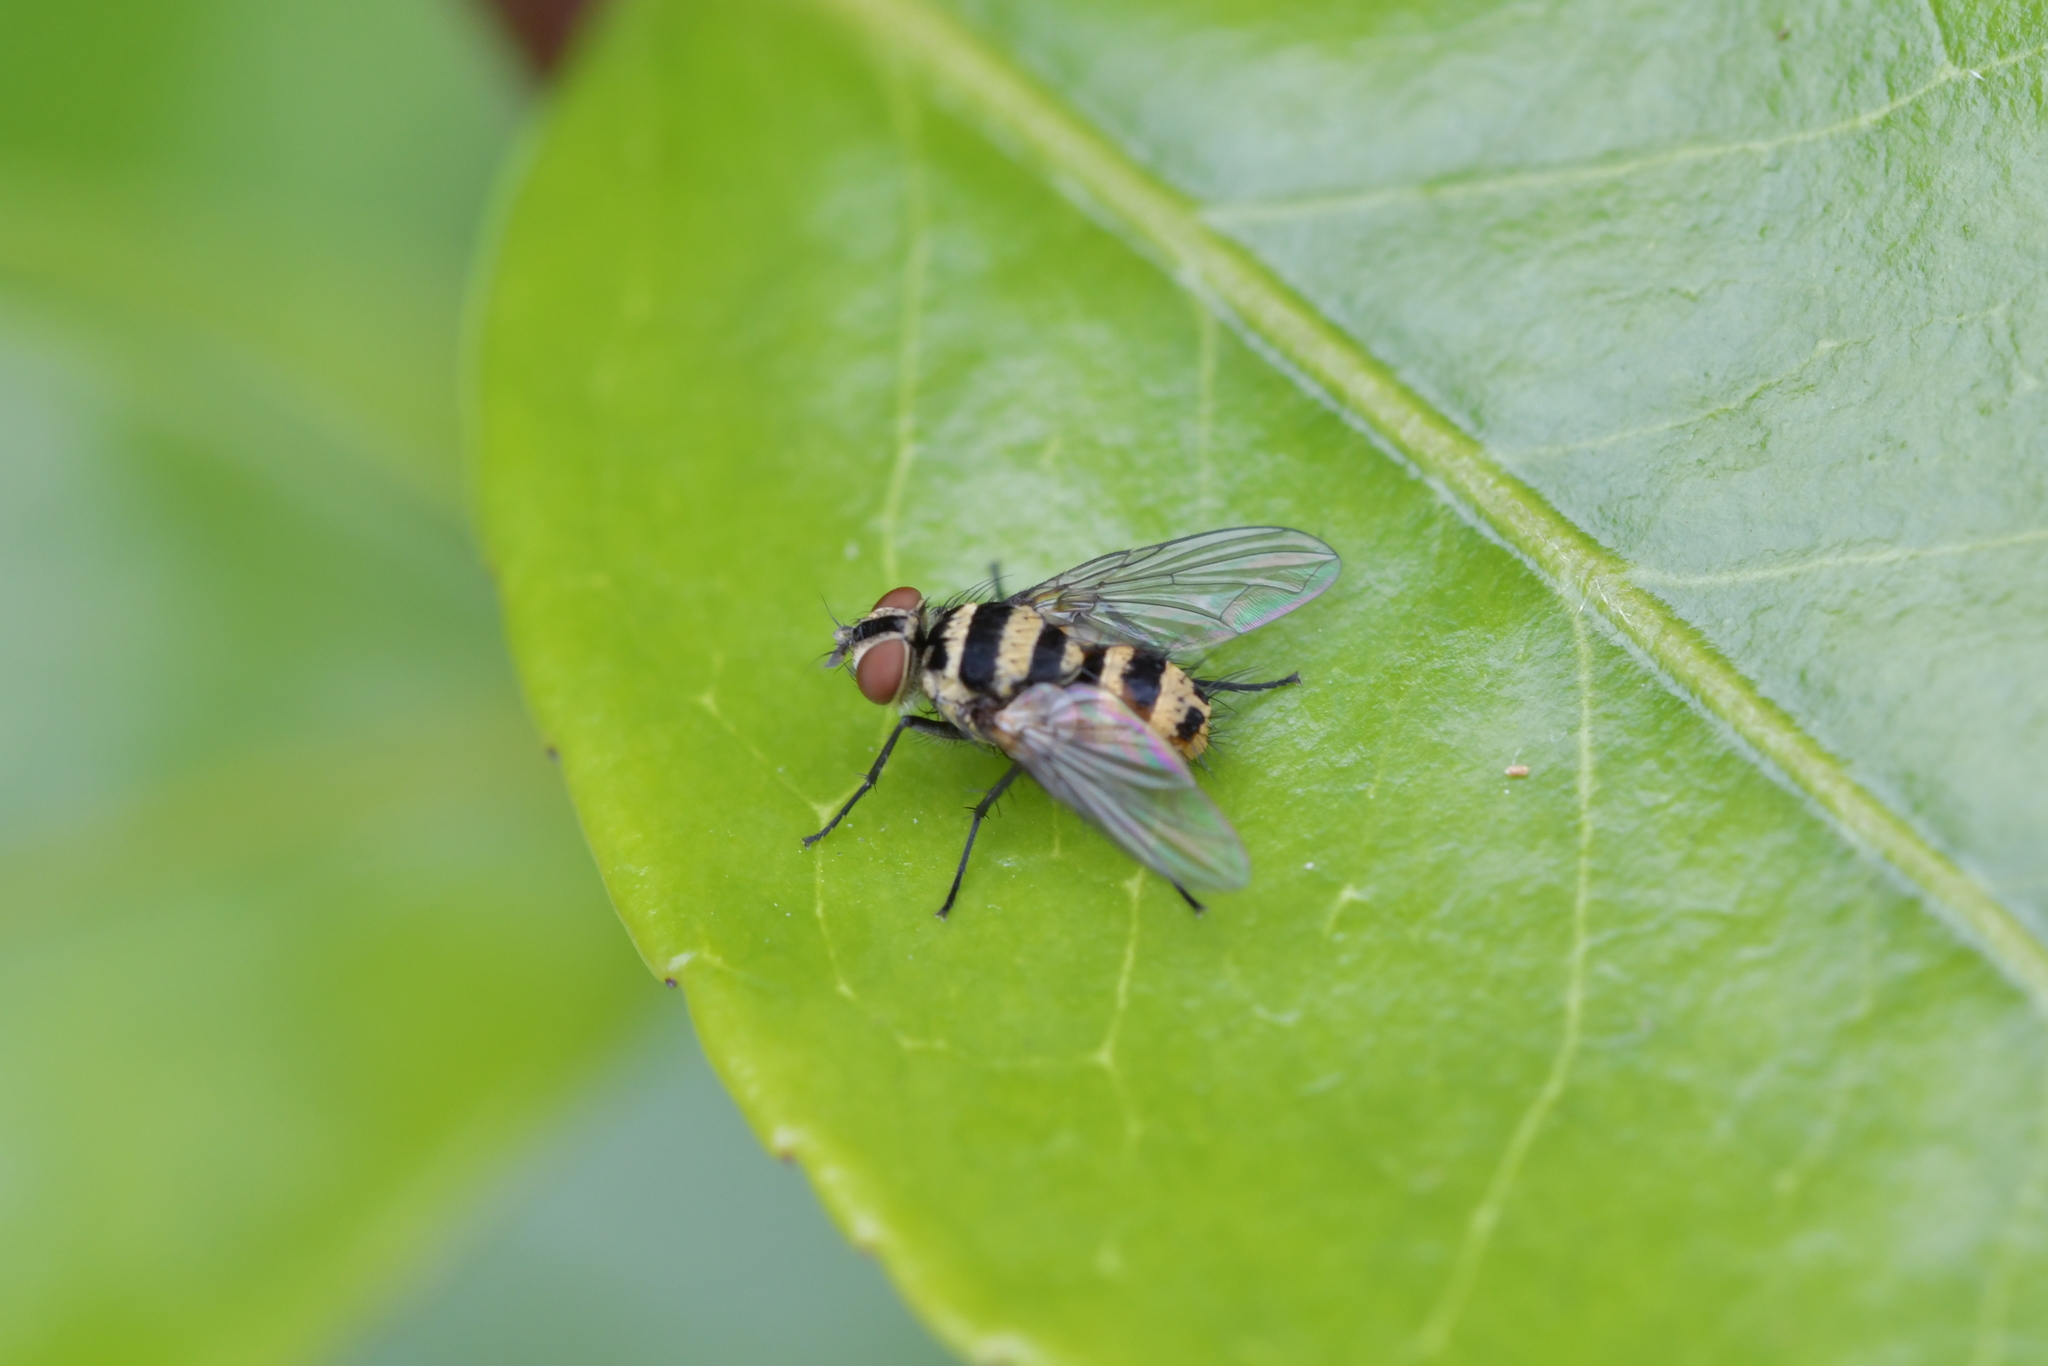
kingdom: Animalia
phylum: Arthropoda
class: Insecta
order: Diptera
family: Tachinidae
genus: Trigonospila
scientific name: Trigonospila brevifacies
